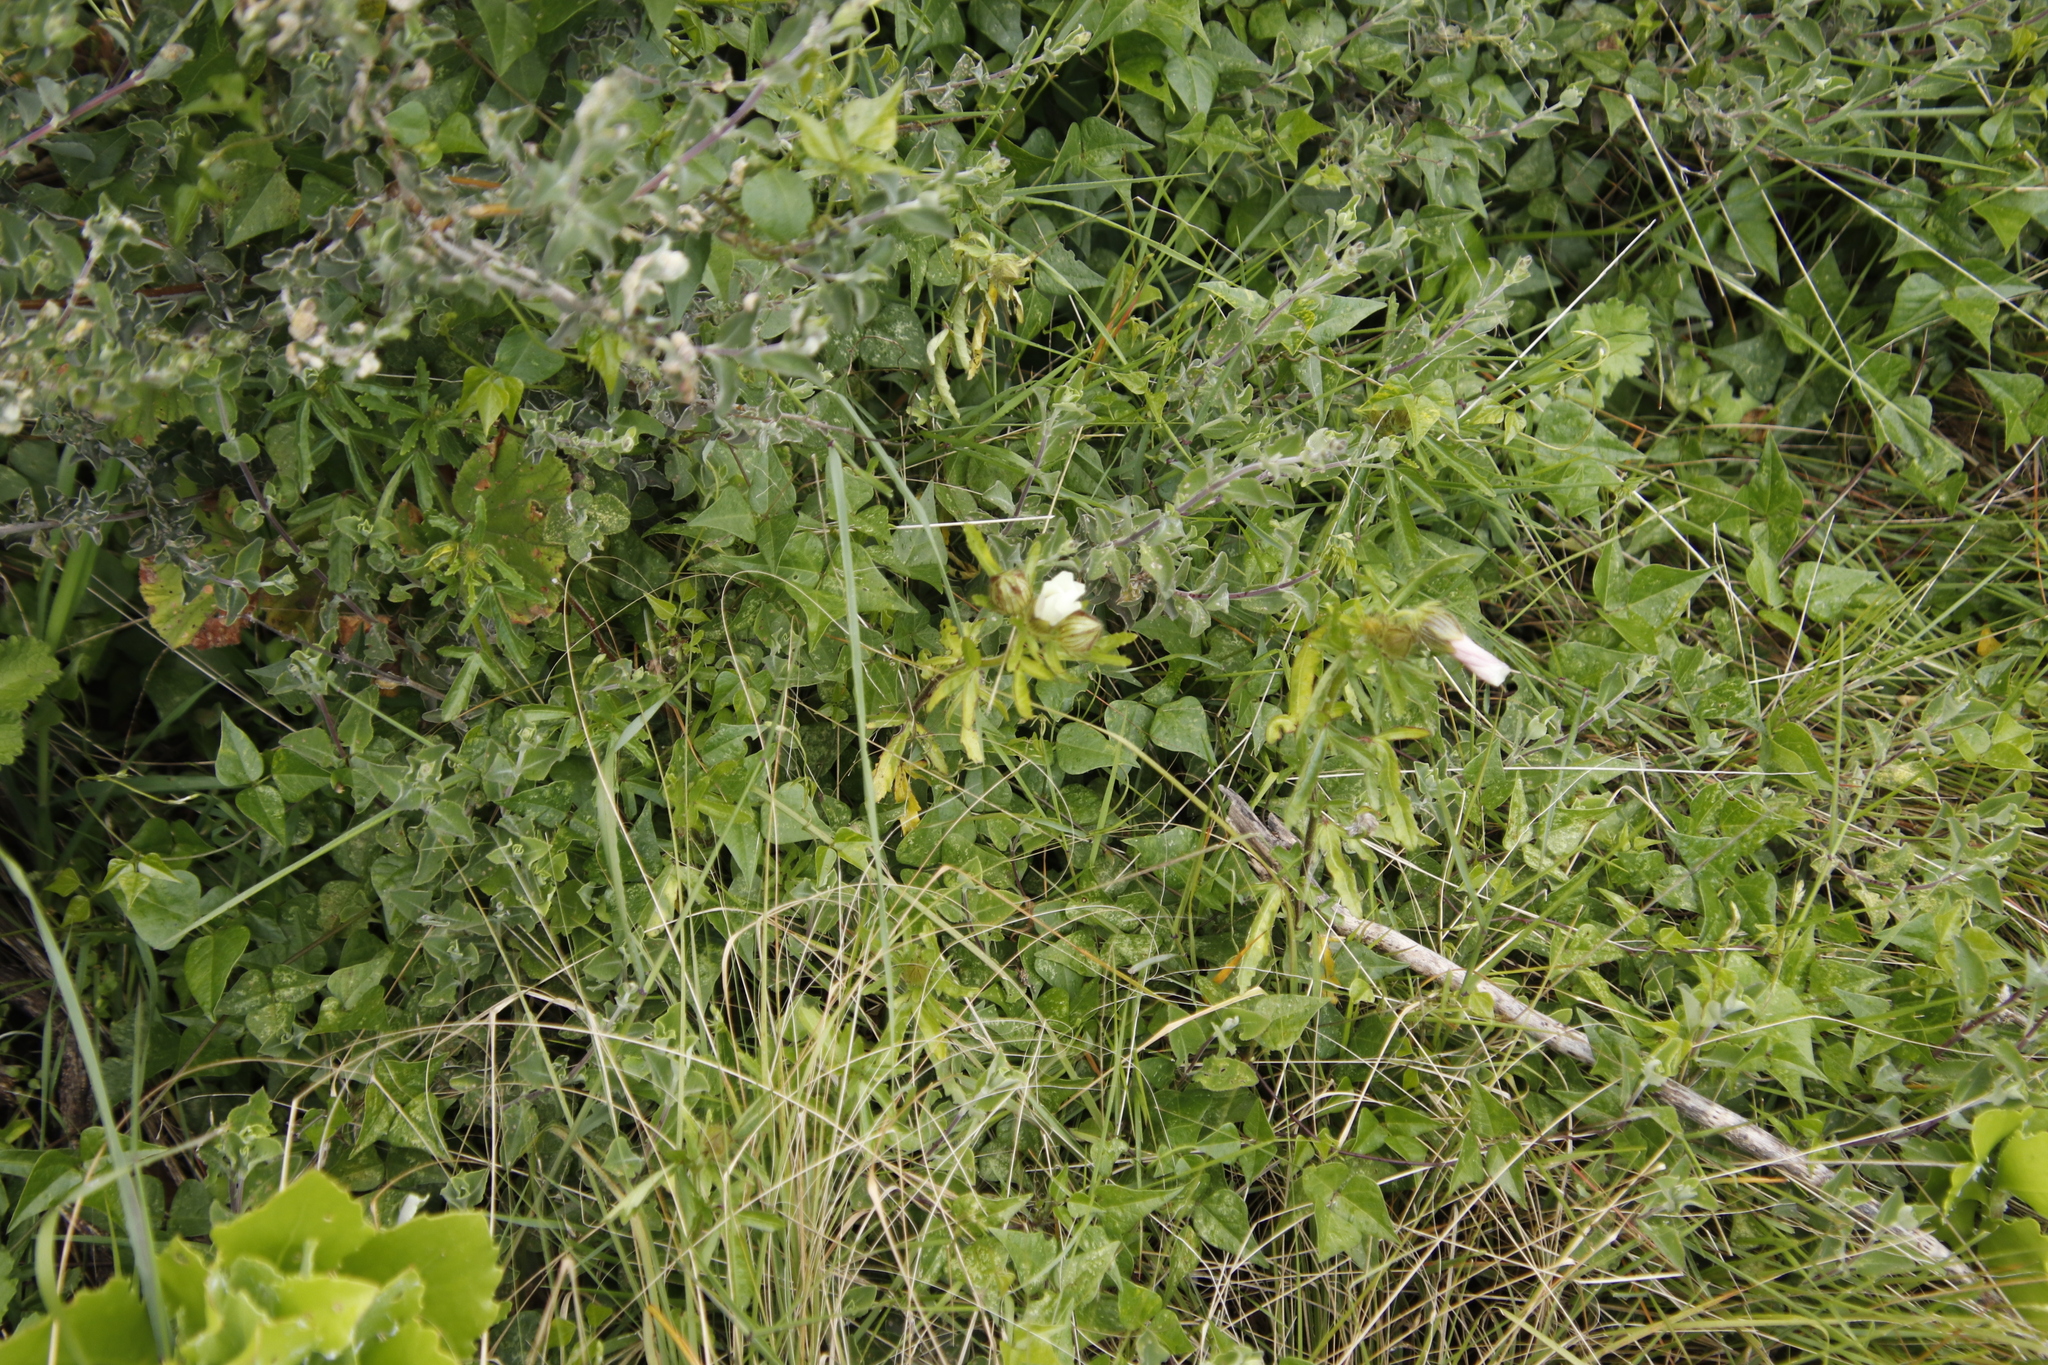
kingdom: Plantae
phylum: Tracheophyta
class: Magnoliopsida
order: Malvales
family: Malvaceae
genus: Hibiscus
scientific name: Hibiscus trionum
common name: Bladder ketmia
